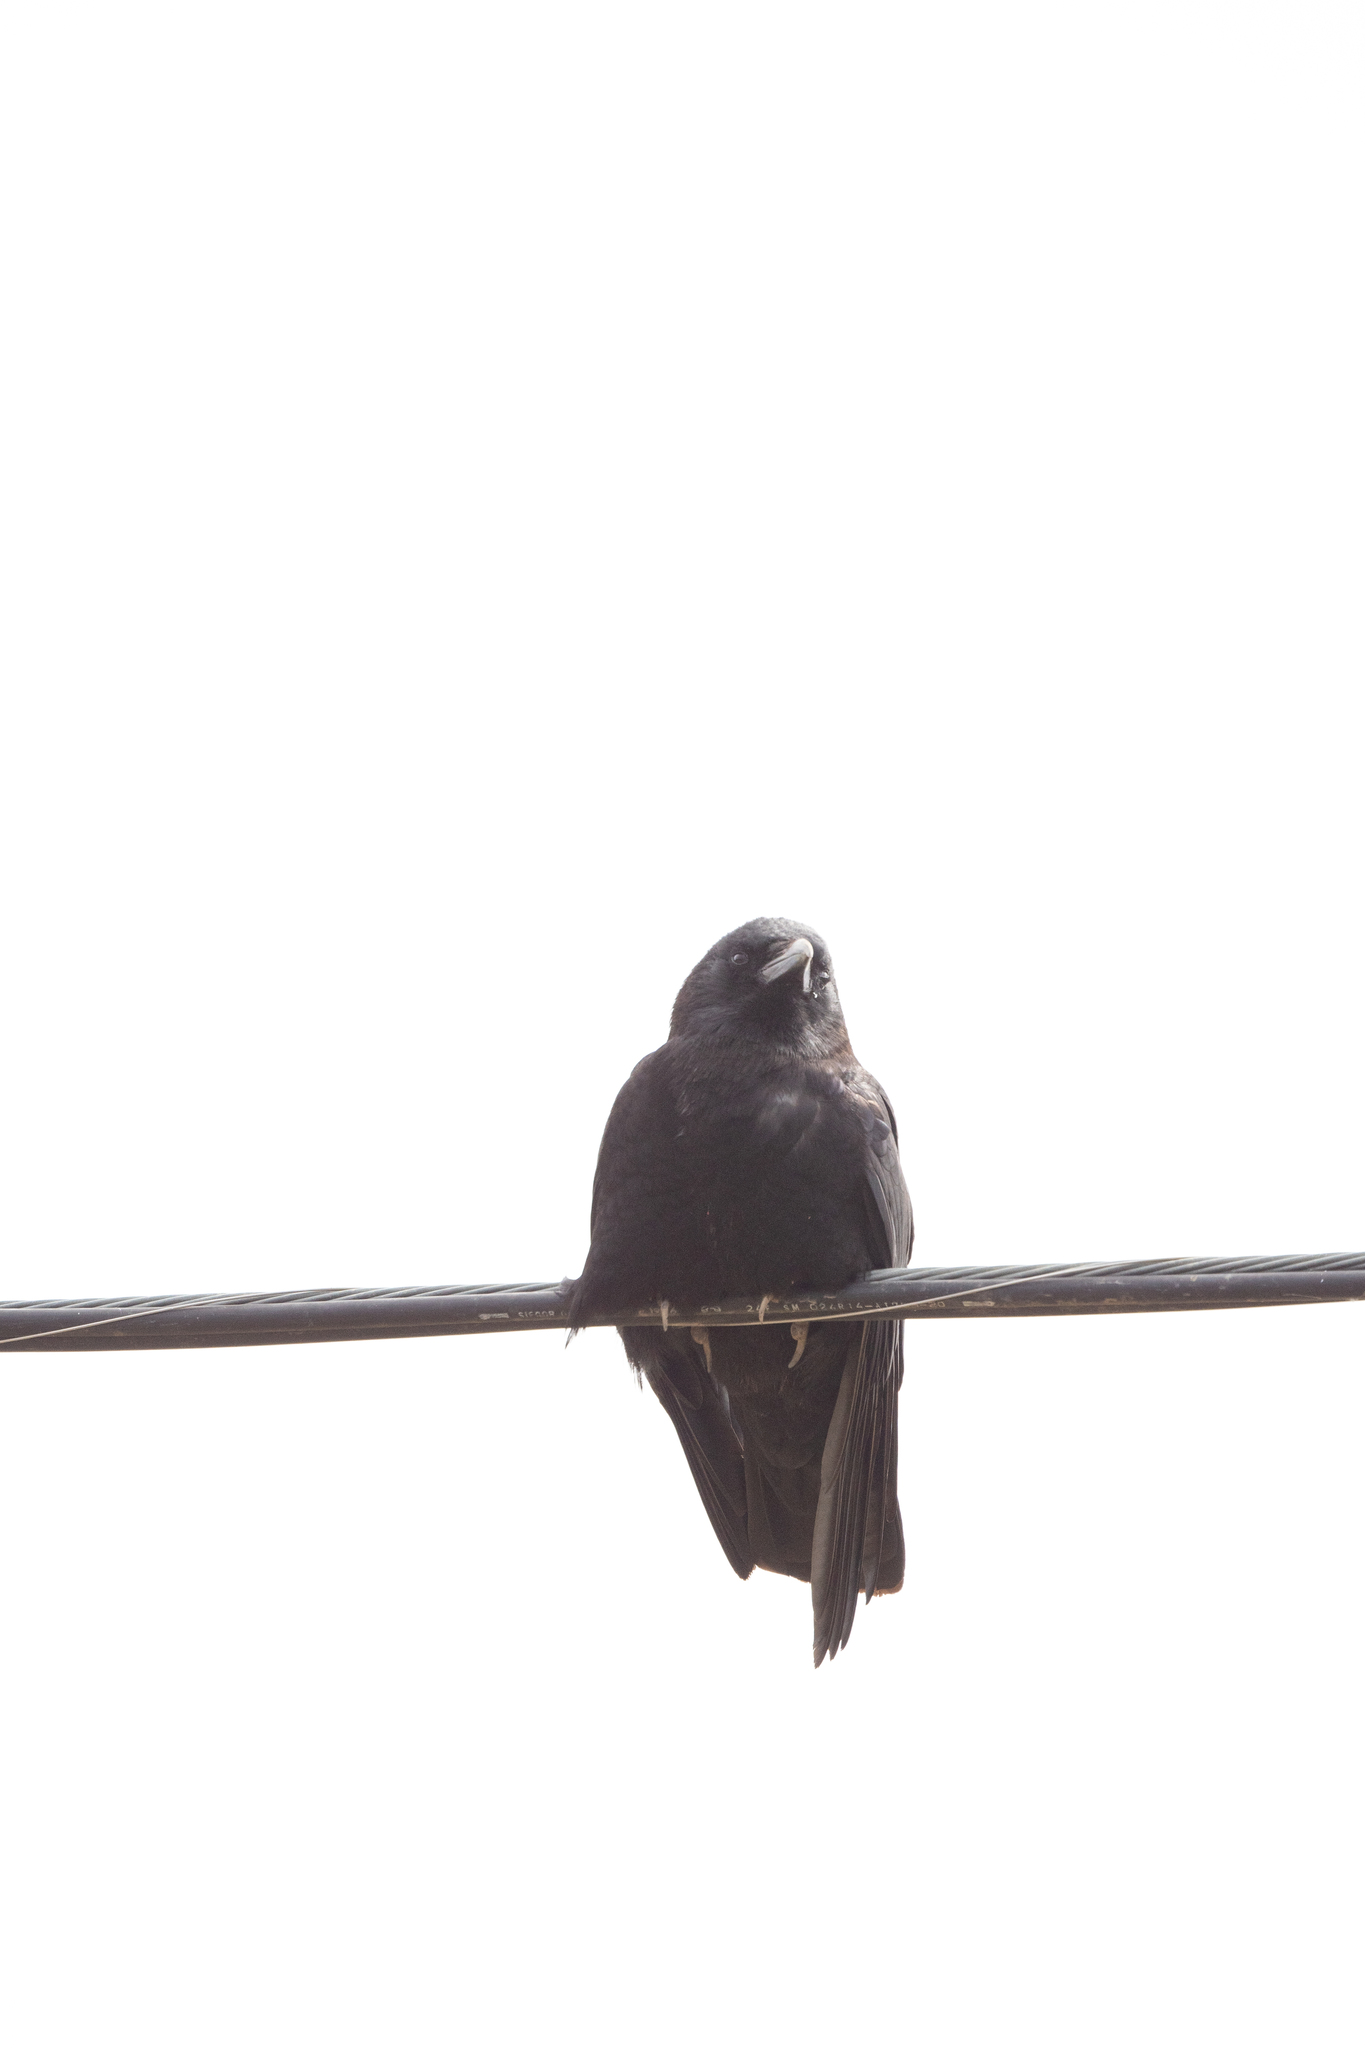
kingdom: Animalia
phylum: Chordata
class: Aves
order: Passeriformes
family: Corvidae
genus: Corvus
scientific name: Corvus brachyrhynchos
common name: American crow
